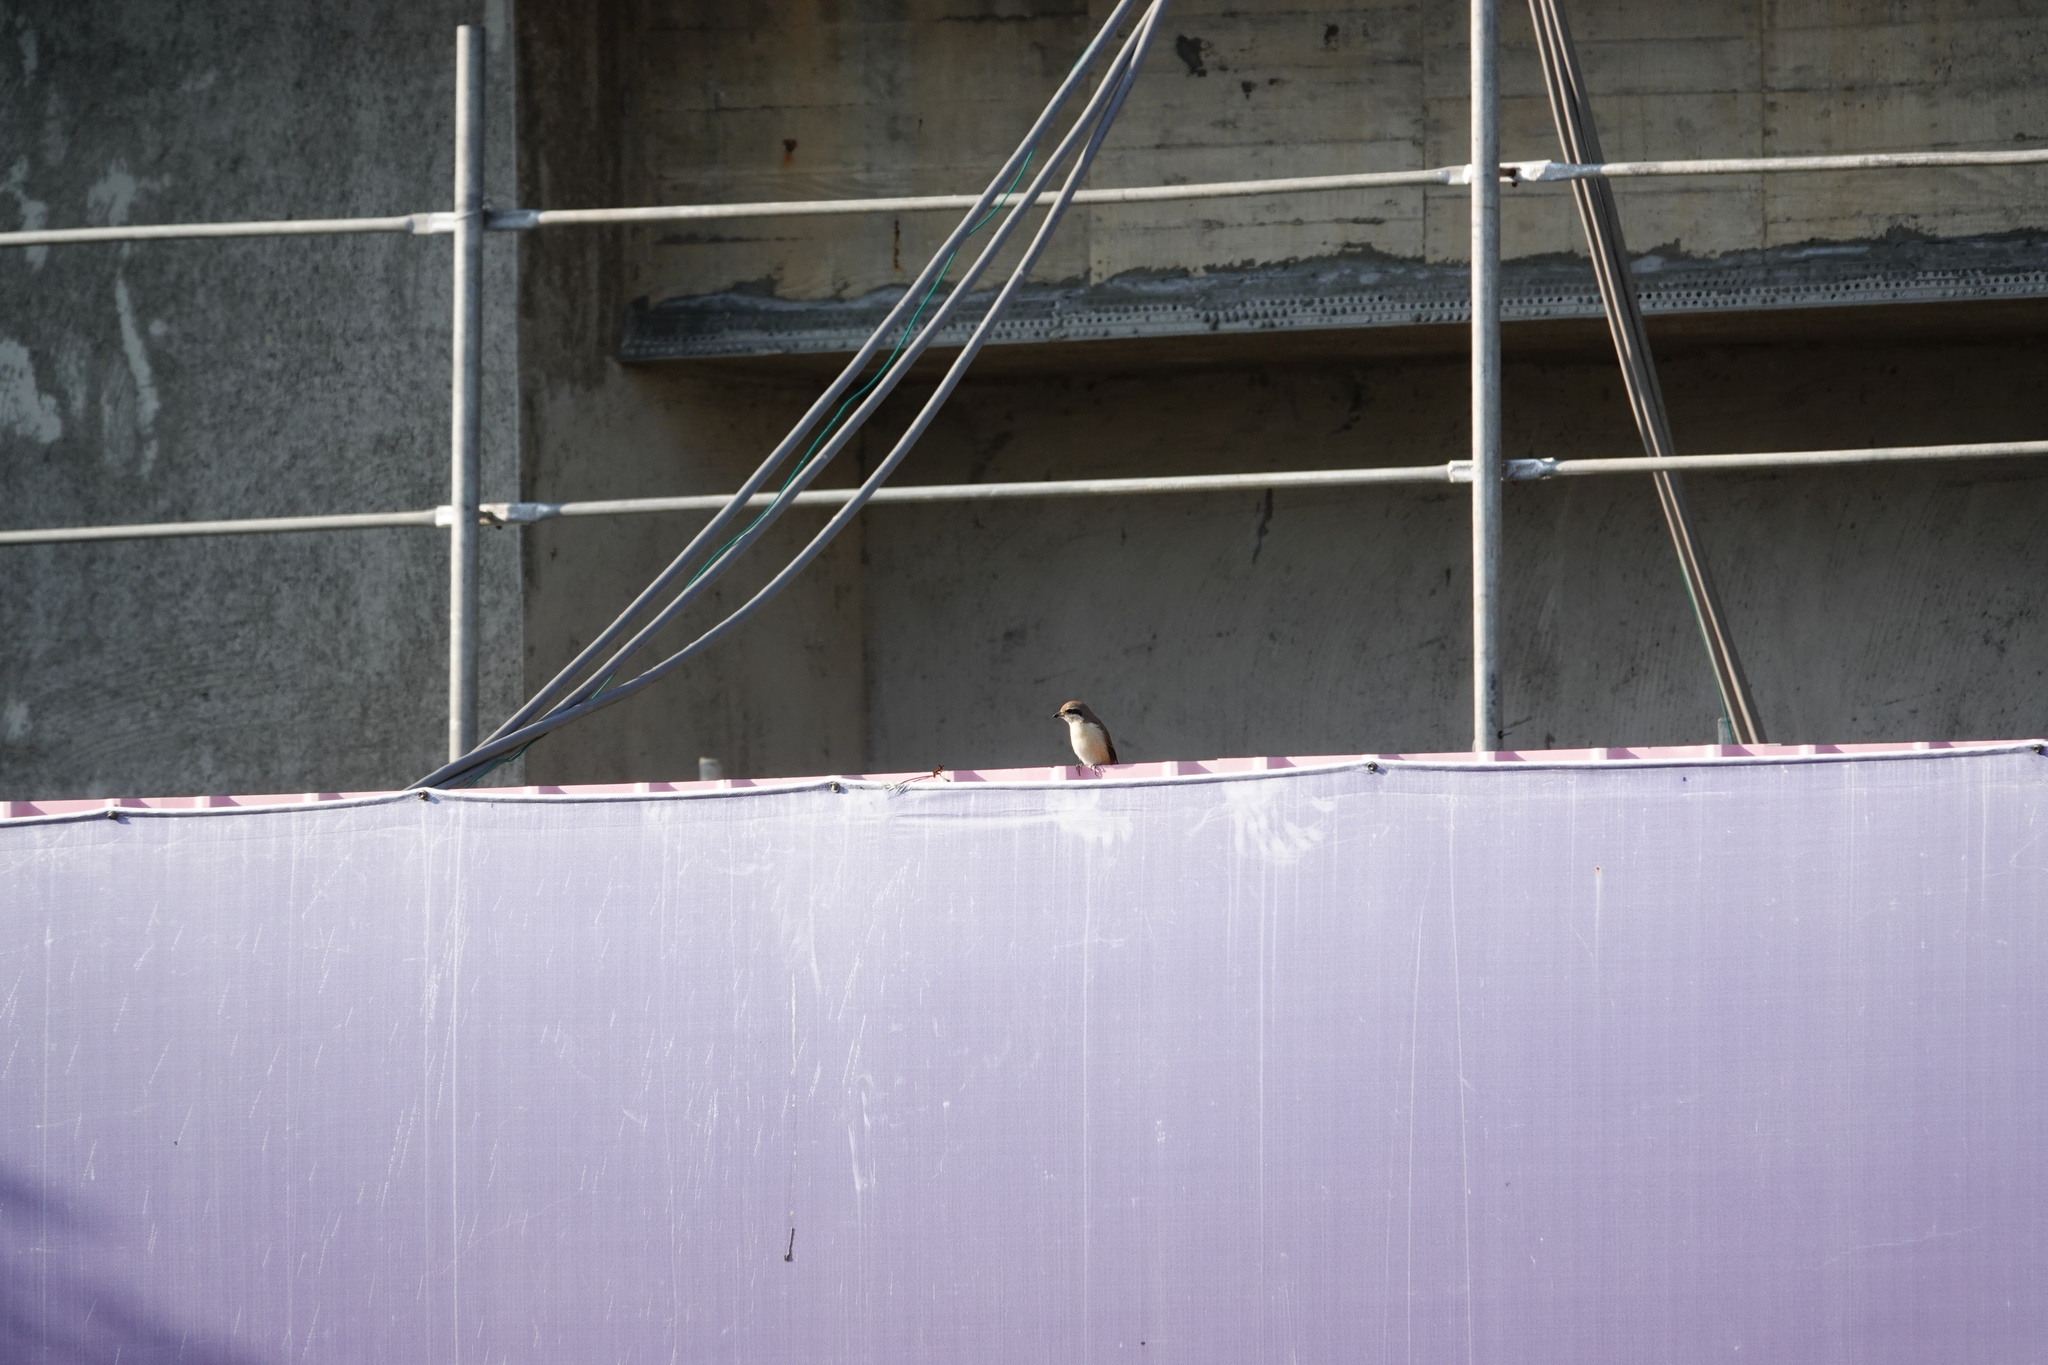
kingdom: Animalia
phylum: Chordata
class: Aves
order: Passeriformes
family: Laniidae
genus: Lanius
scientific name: Lanius cristatus
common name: Brown shrike
